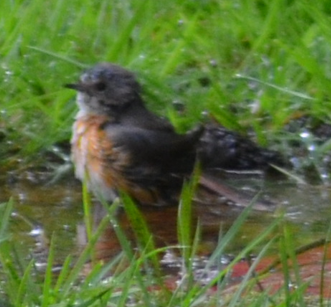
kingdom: Animalia
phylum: Chordata
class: Aves
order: Passeriformes
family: Muscicapidae
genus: Phoenicurus
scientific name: Phoenicurus phoenicurus
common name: Common redstart
